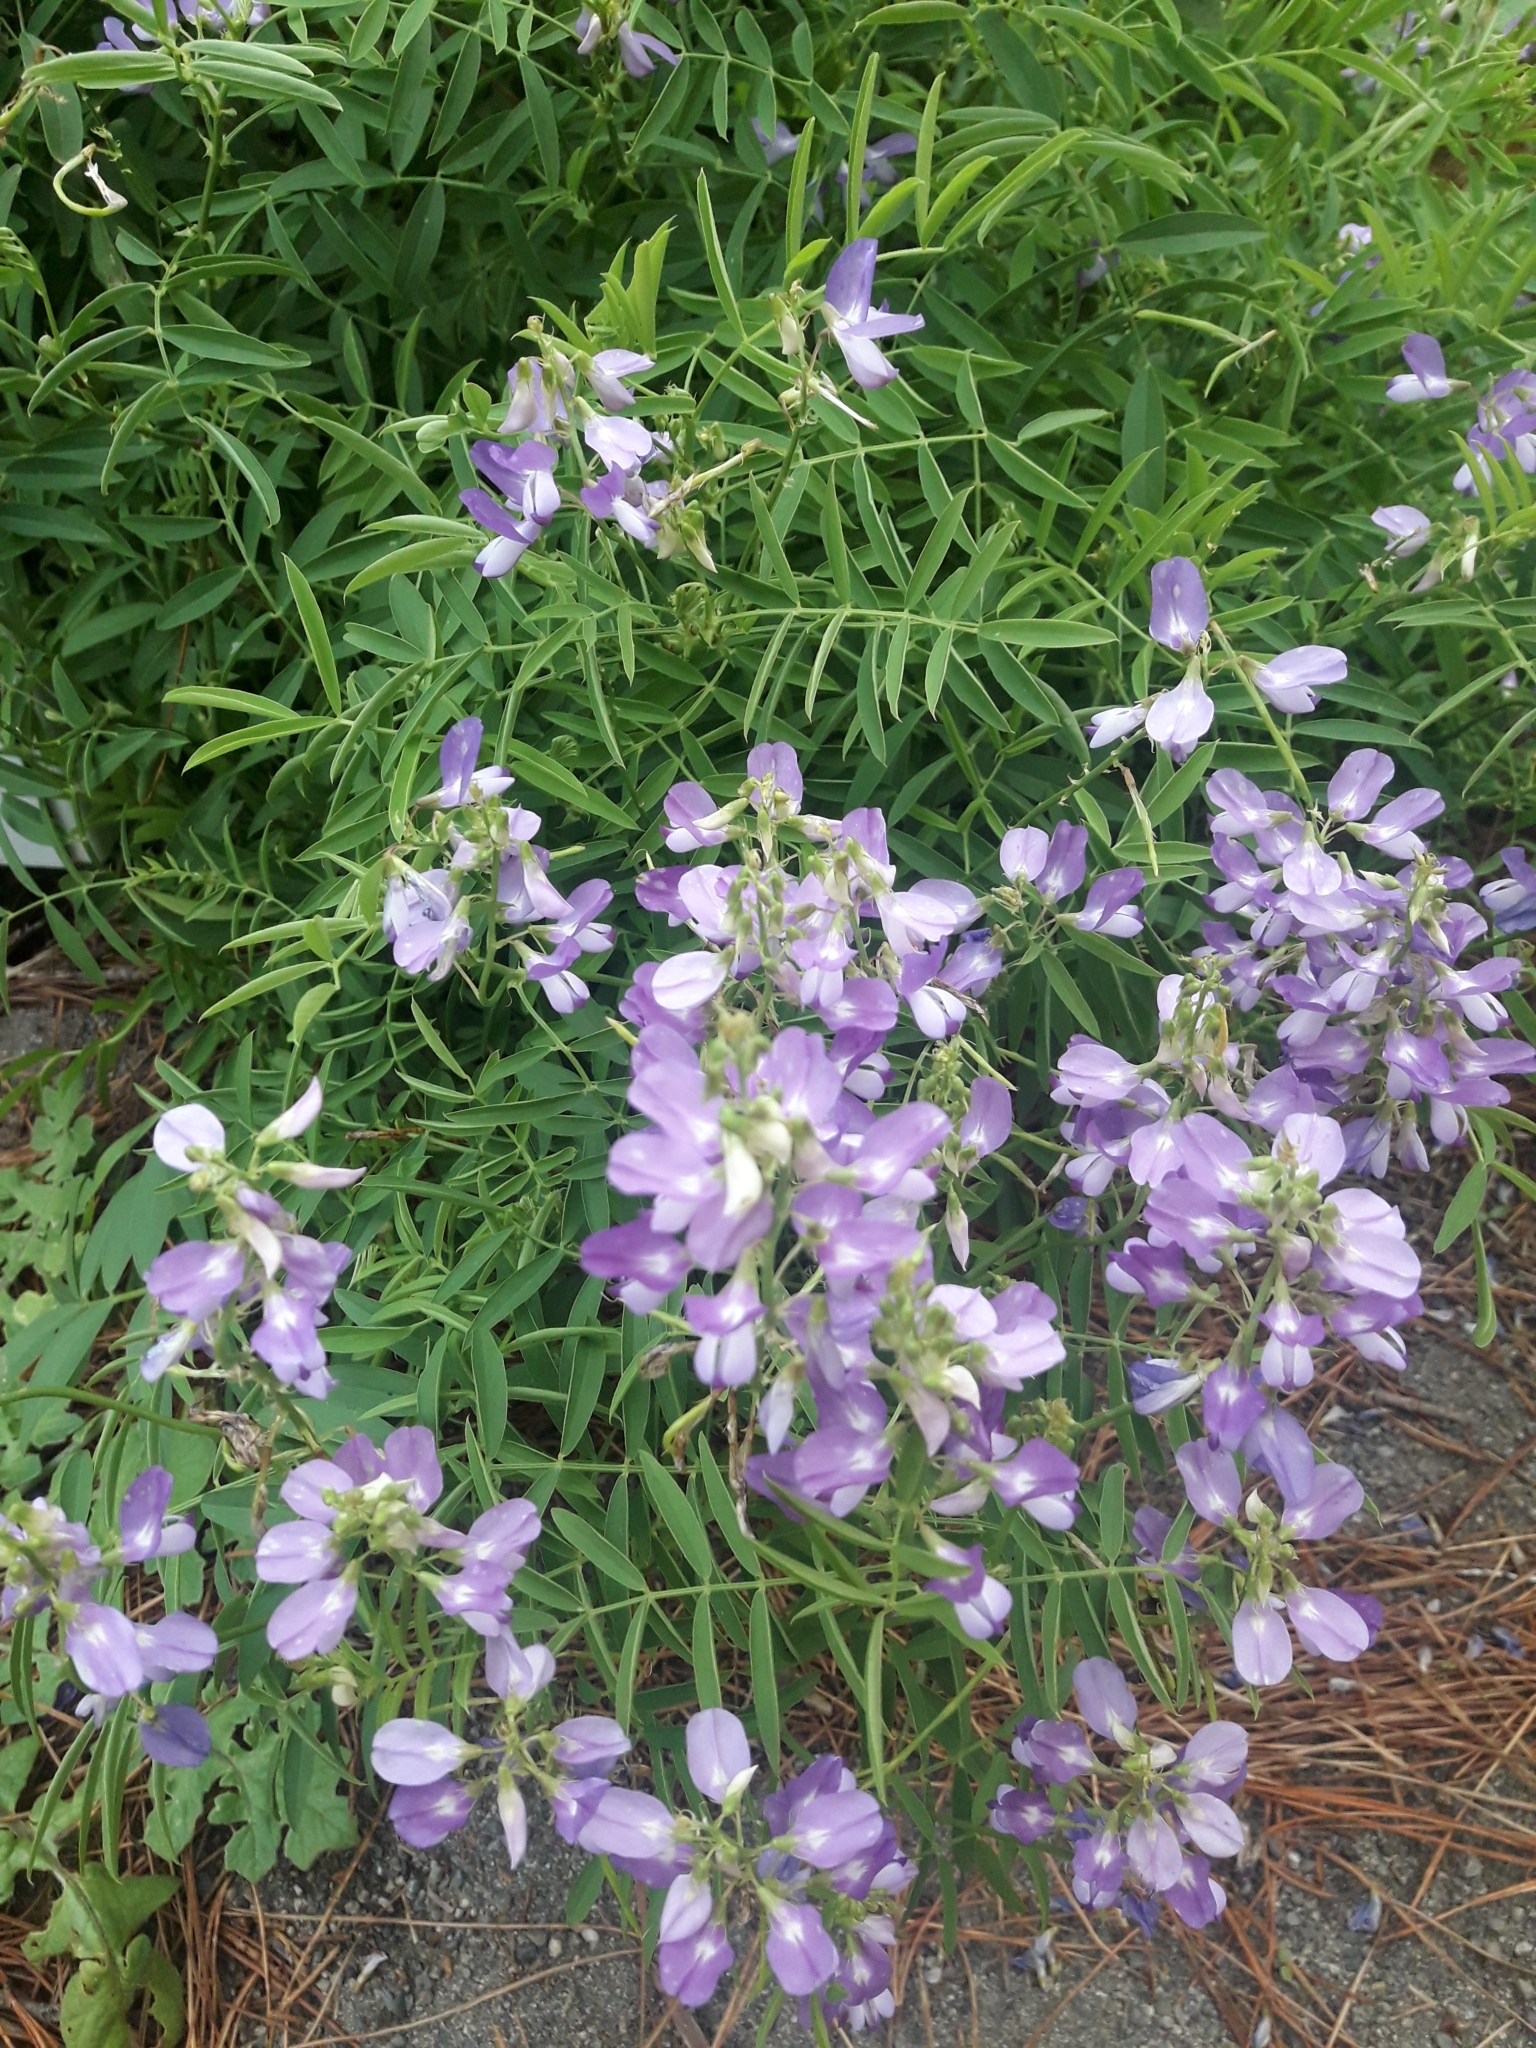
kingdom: Plantae
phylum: Tracheophyta
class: Magnoliopsida
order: Fabales
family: Fabaceae
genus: Galega
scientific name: Galega officinalis
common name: Goat's-rue
